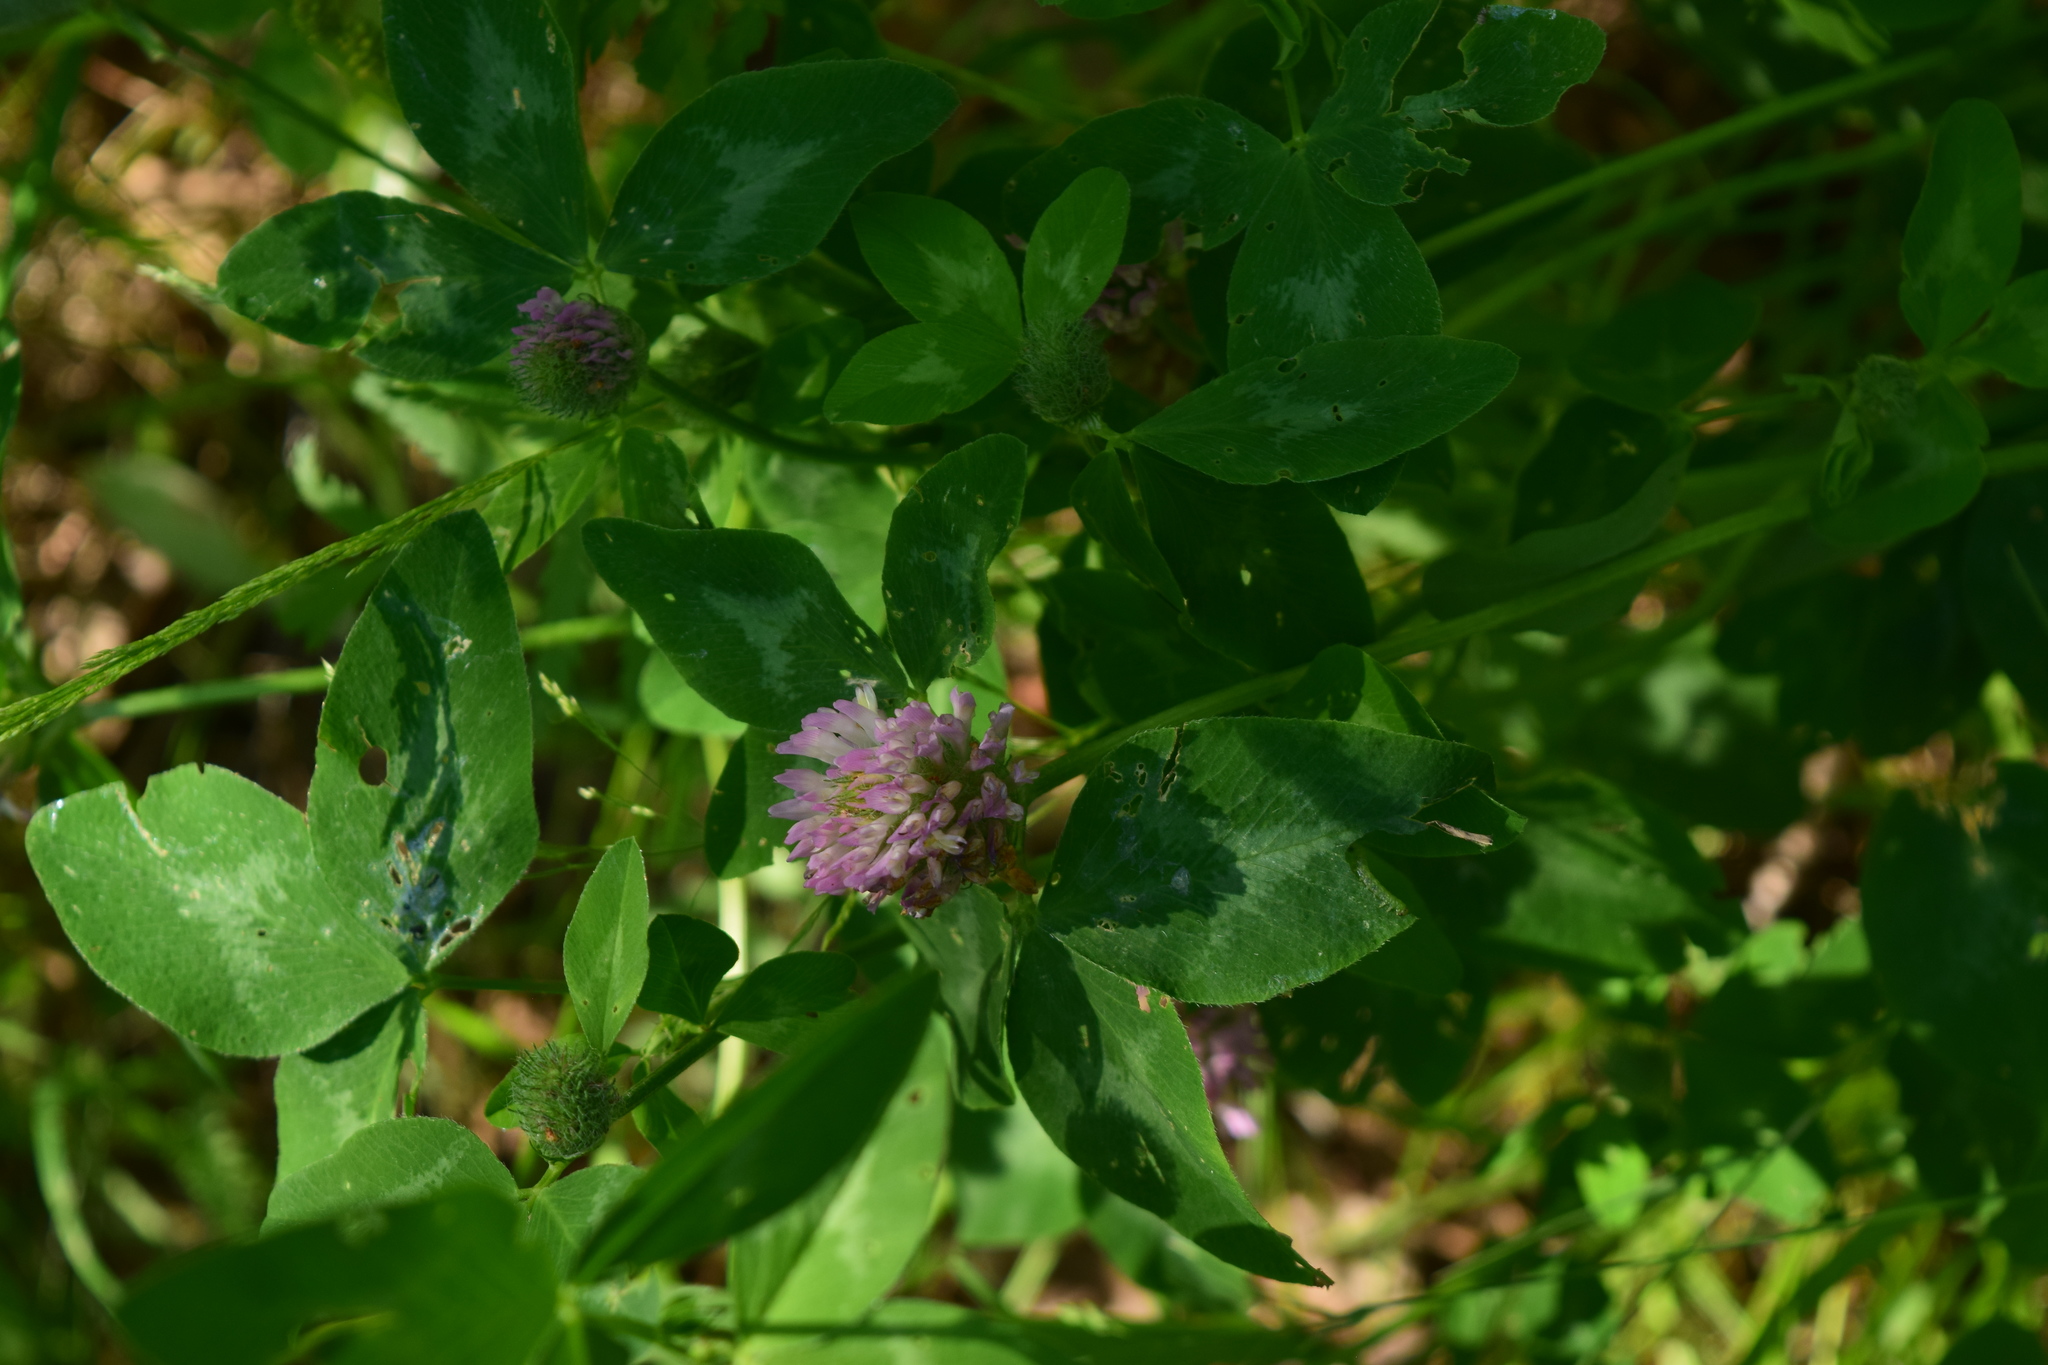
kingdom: Plantae
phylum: Tracheophyta
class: Magnoliopsida
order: Fabales
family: Fabaceae
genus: Trifolium
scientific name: Trifolium pratense
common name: Red clover
